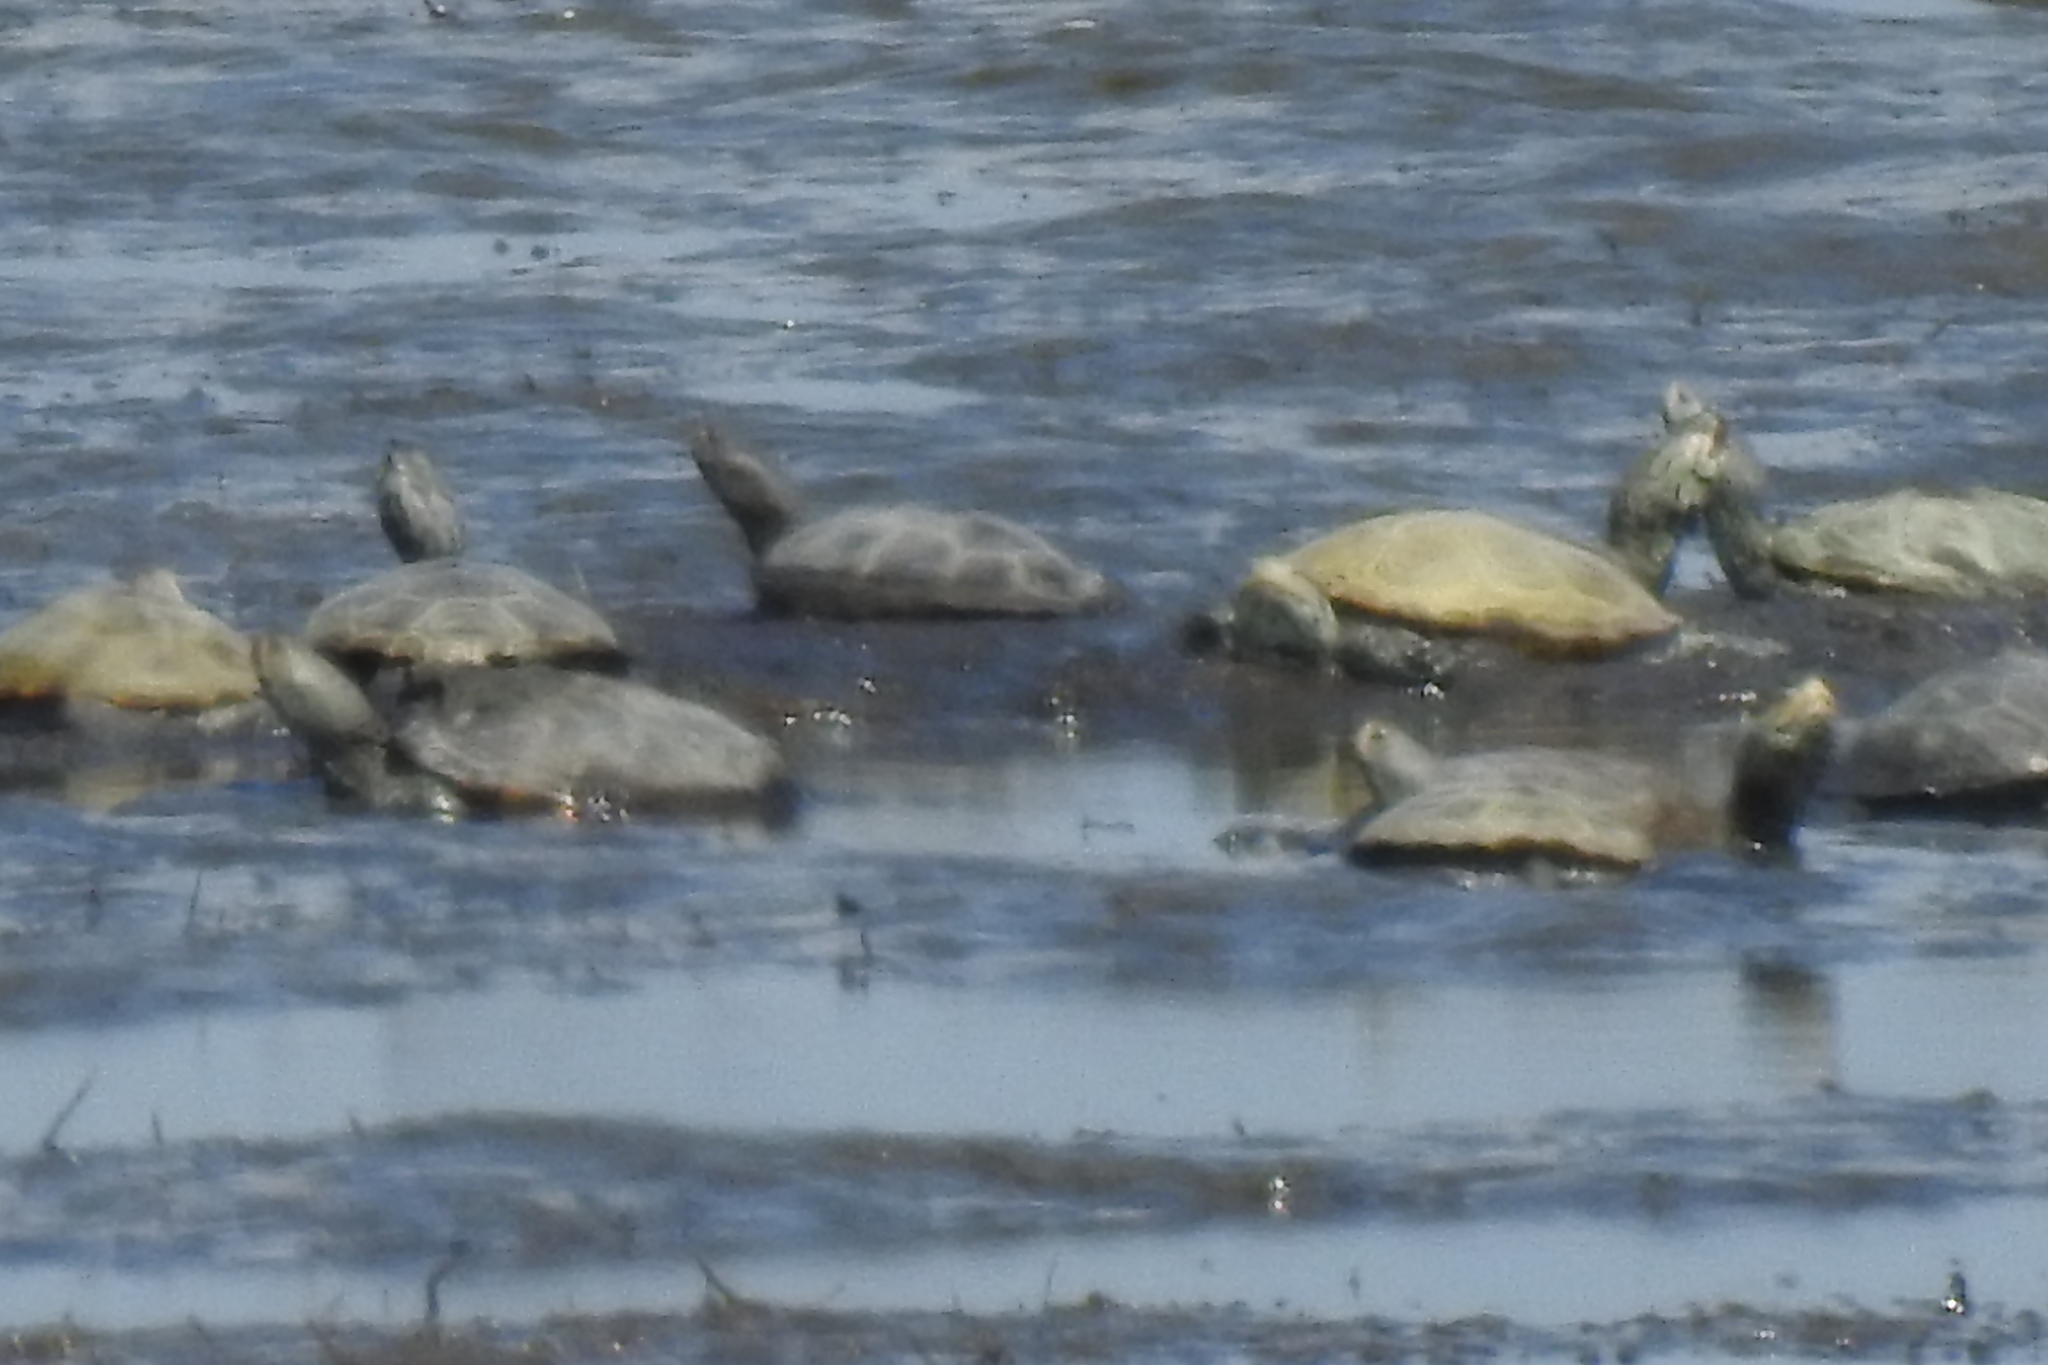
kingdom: Animalia
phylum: Chordata
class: Testudines
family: Emydidae
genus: Malaclemys
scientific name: Malaclemys terrapin
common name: Diamondback terrapin
